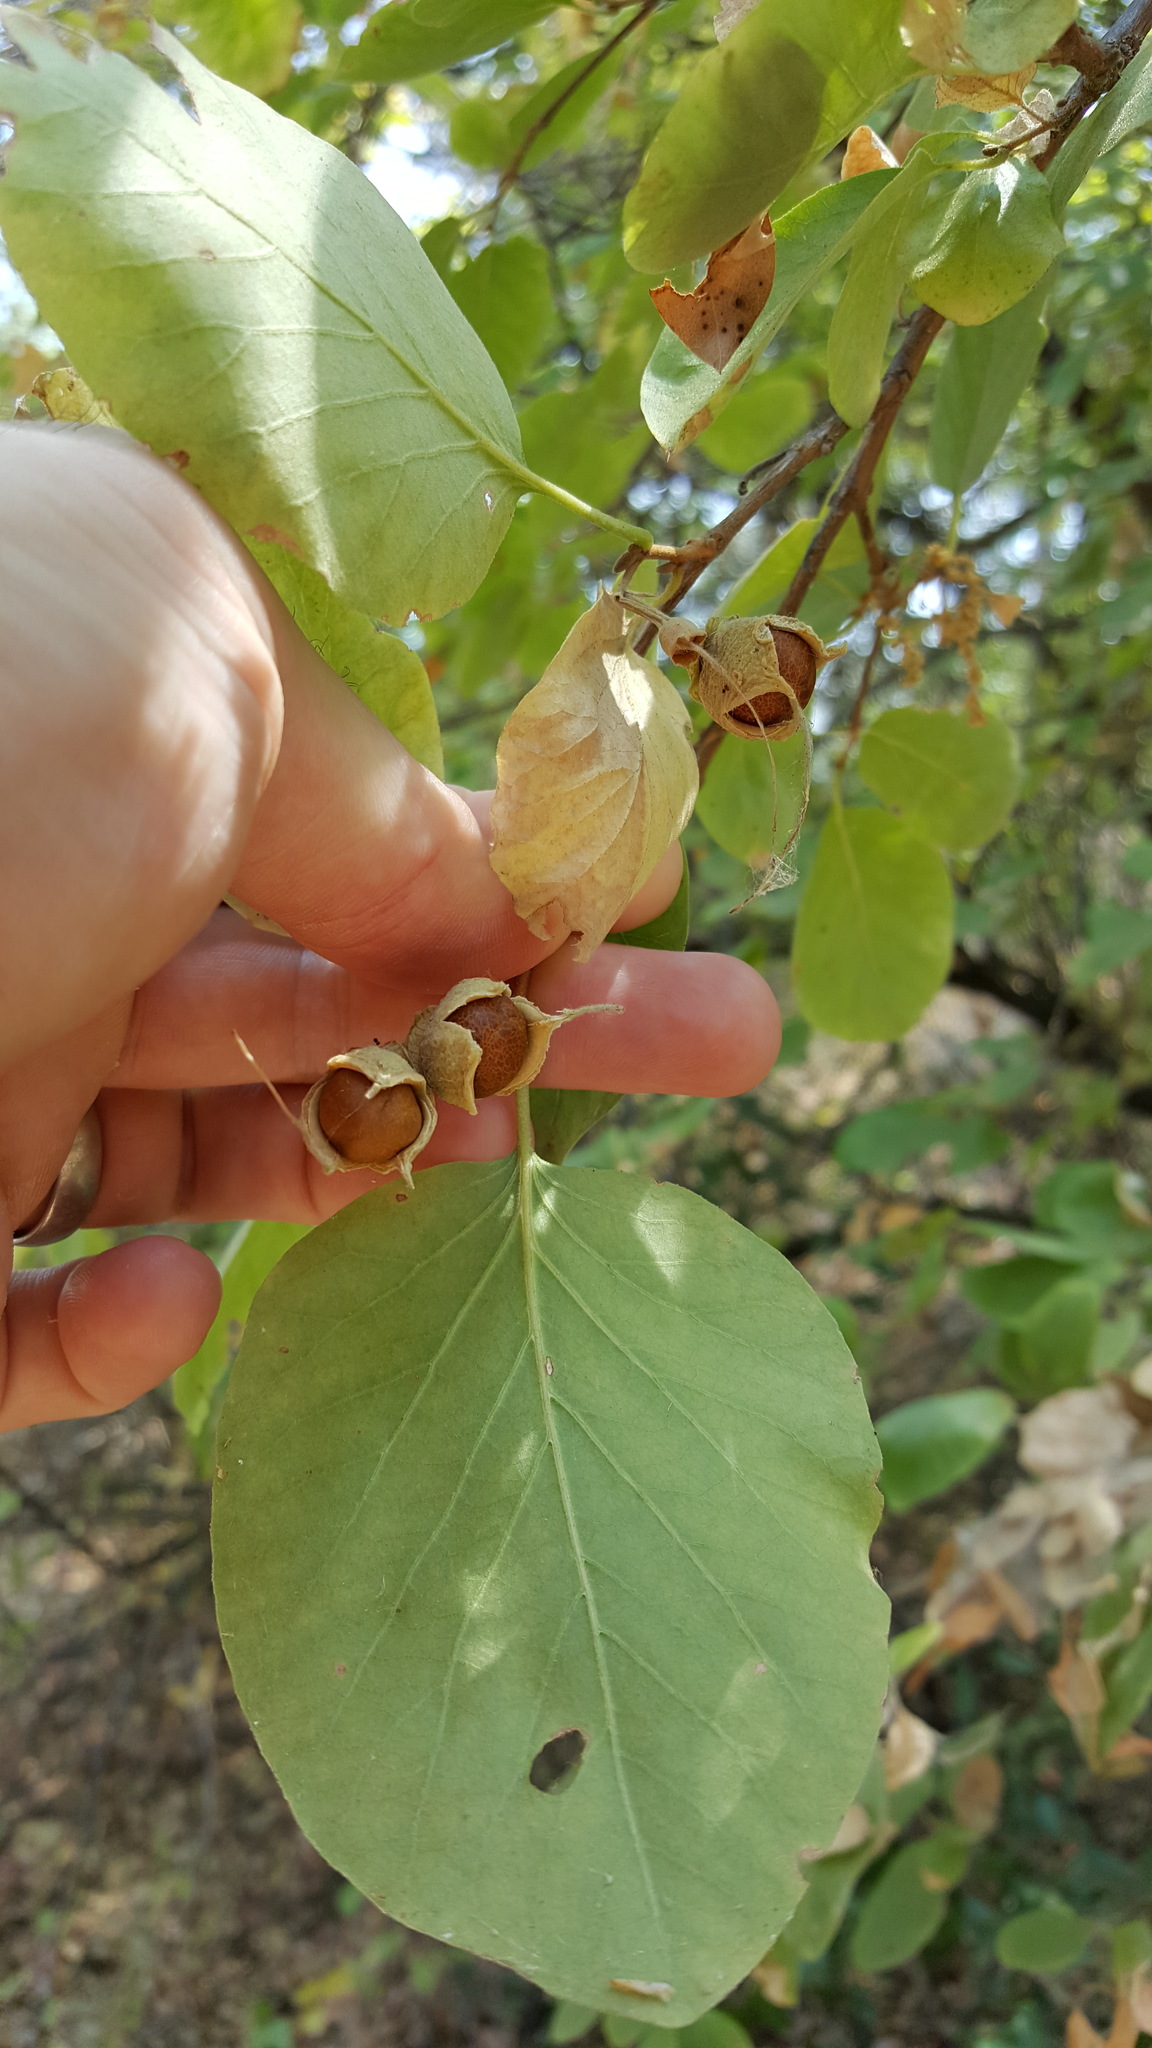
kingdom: Plantae
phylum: Tracheophyta
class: Magnoliopsida
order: Ericales
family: Styracaceae
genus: Styrax
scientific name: Styrax redivivus
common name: California styrax
